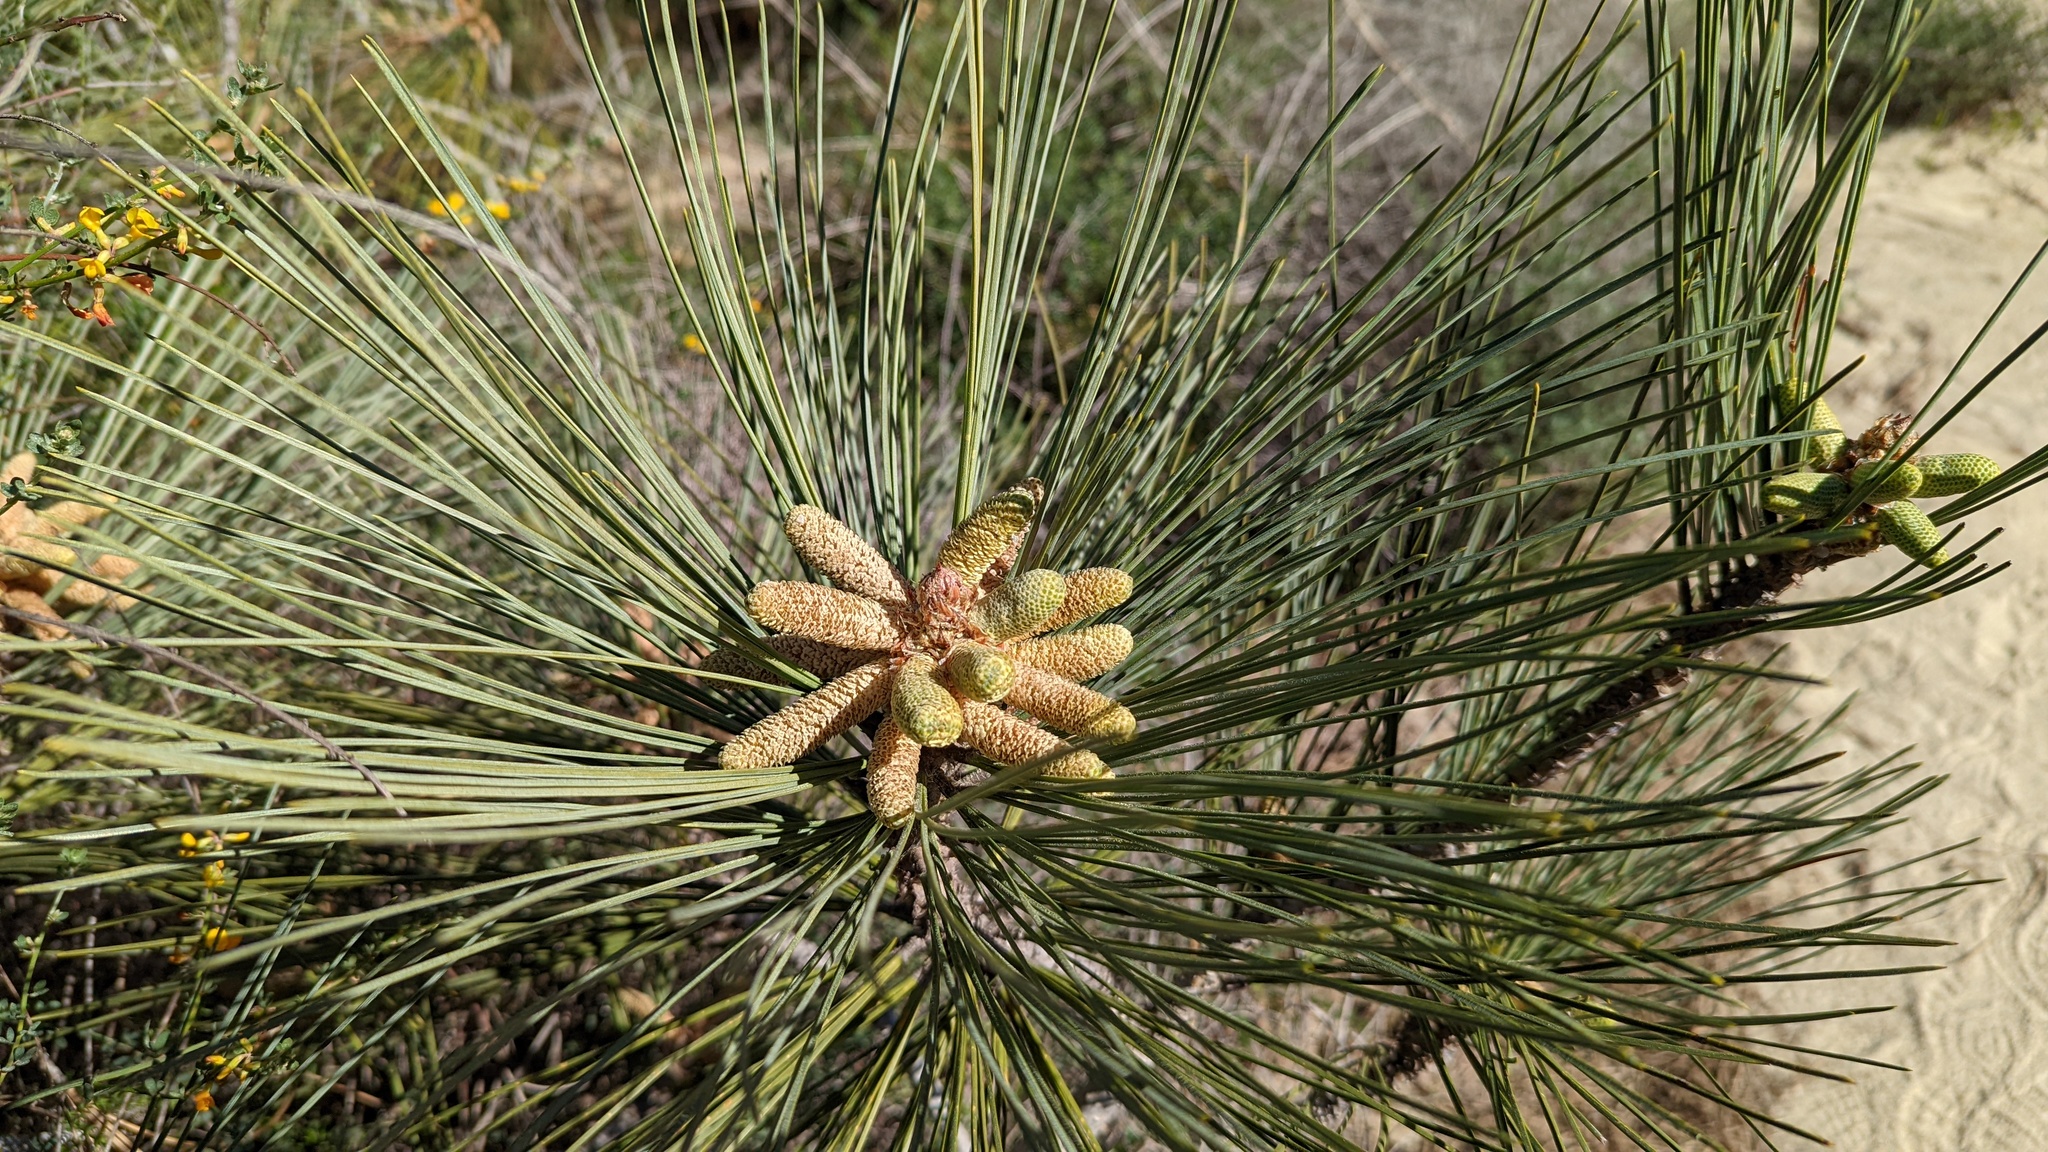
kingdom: Plantae
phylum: Tracheophyta
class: Pinopsida
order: Pinales
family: Pinaceae
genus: Pinus
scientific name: Pinus torreyana
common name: Torrey pine
